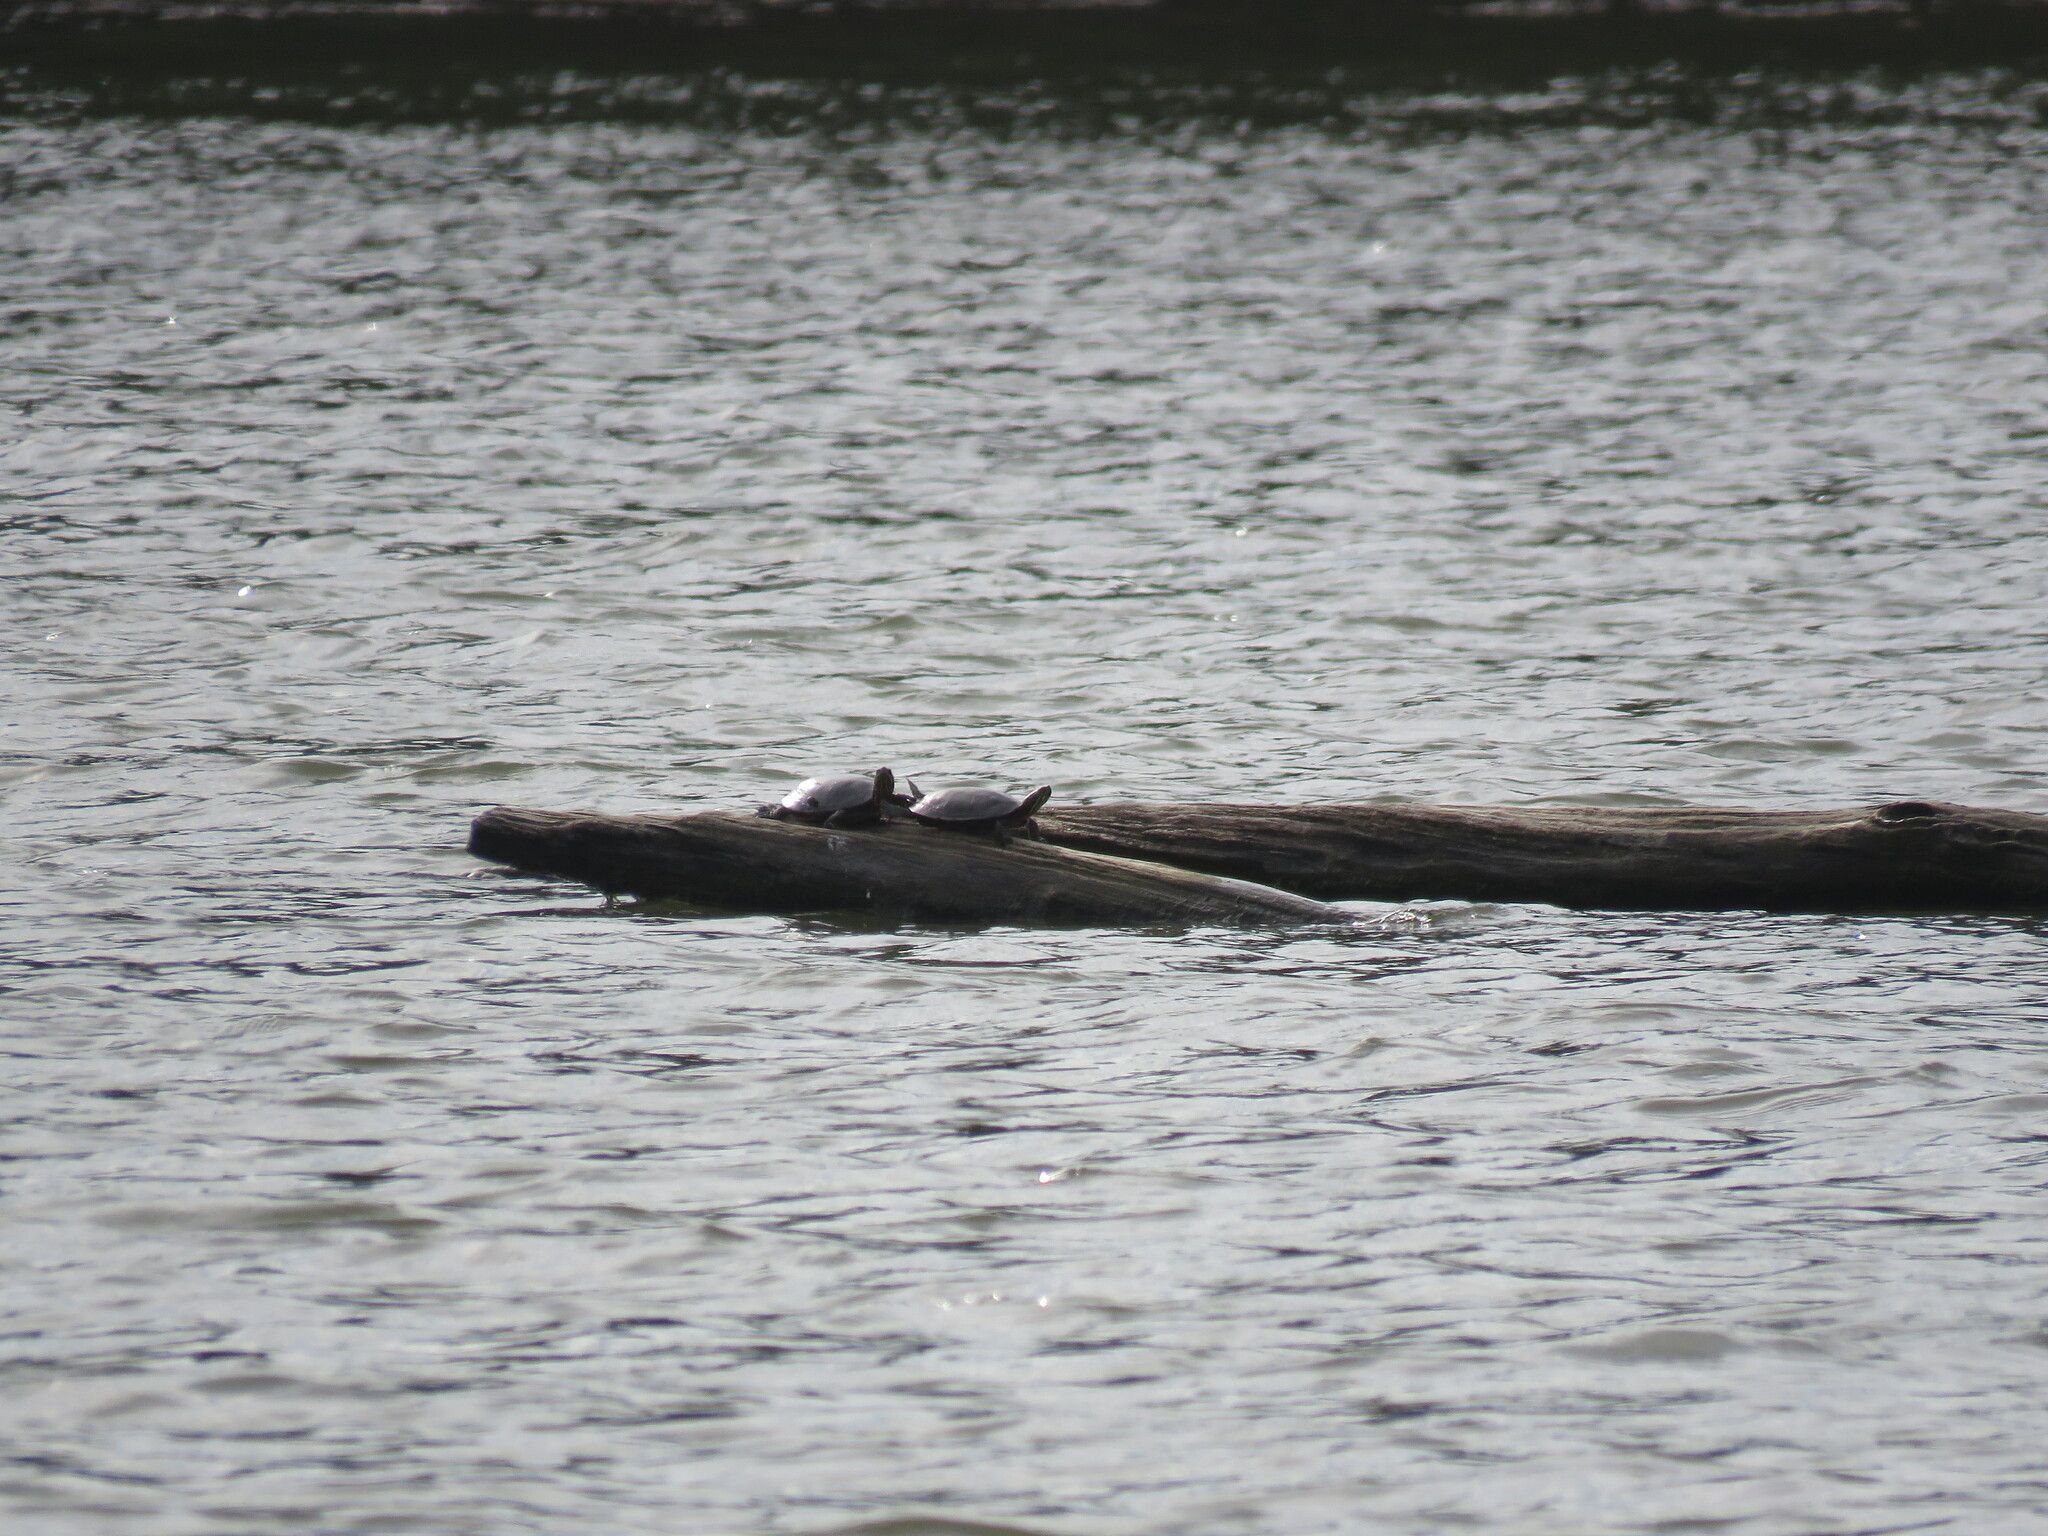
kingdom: Animalia
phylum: Chordata
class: Testudines
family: Emydidae
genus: Chrysemys
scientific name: Chrysemys picta
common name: Painted turtle
